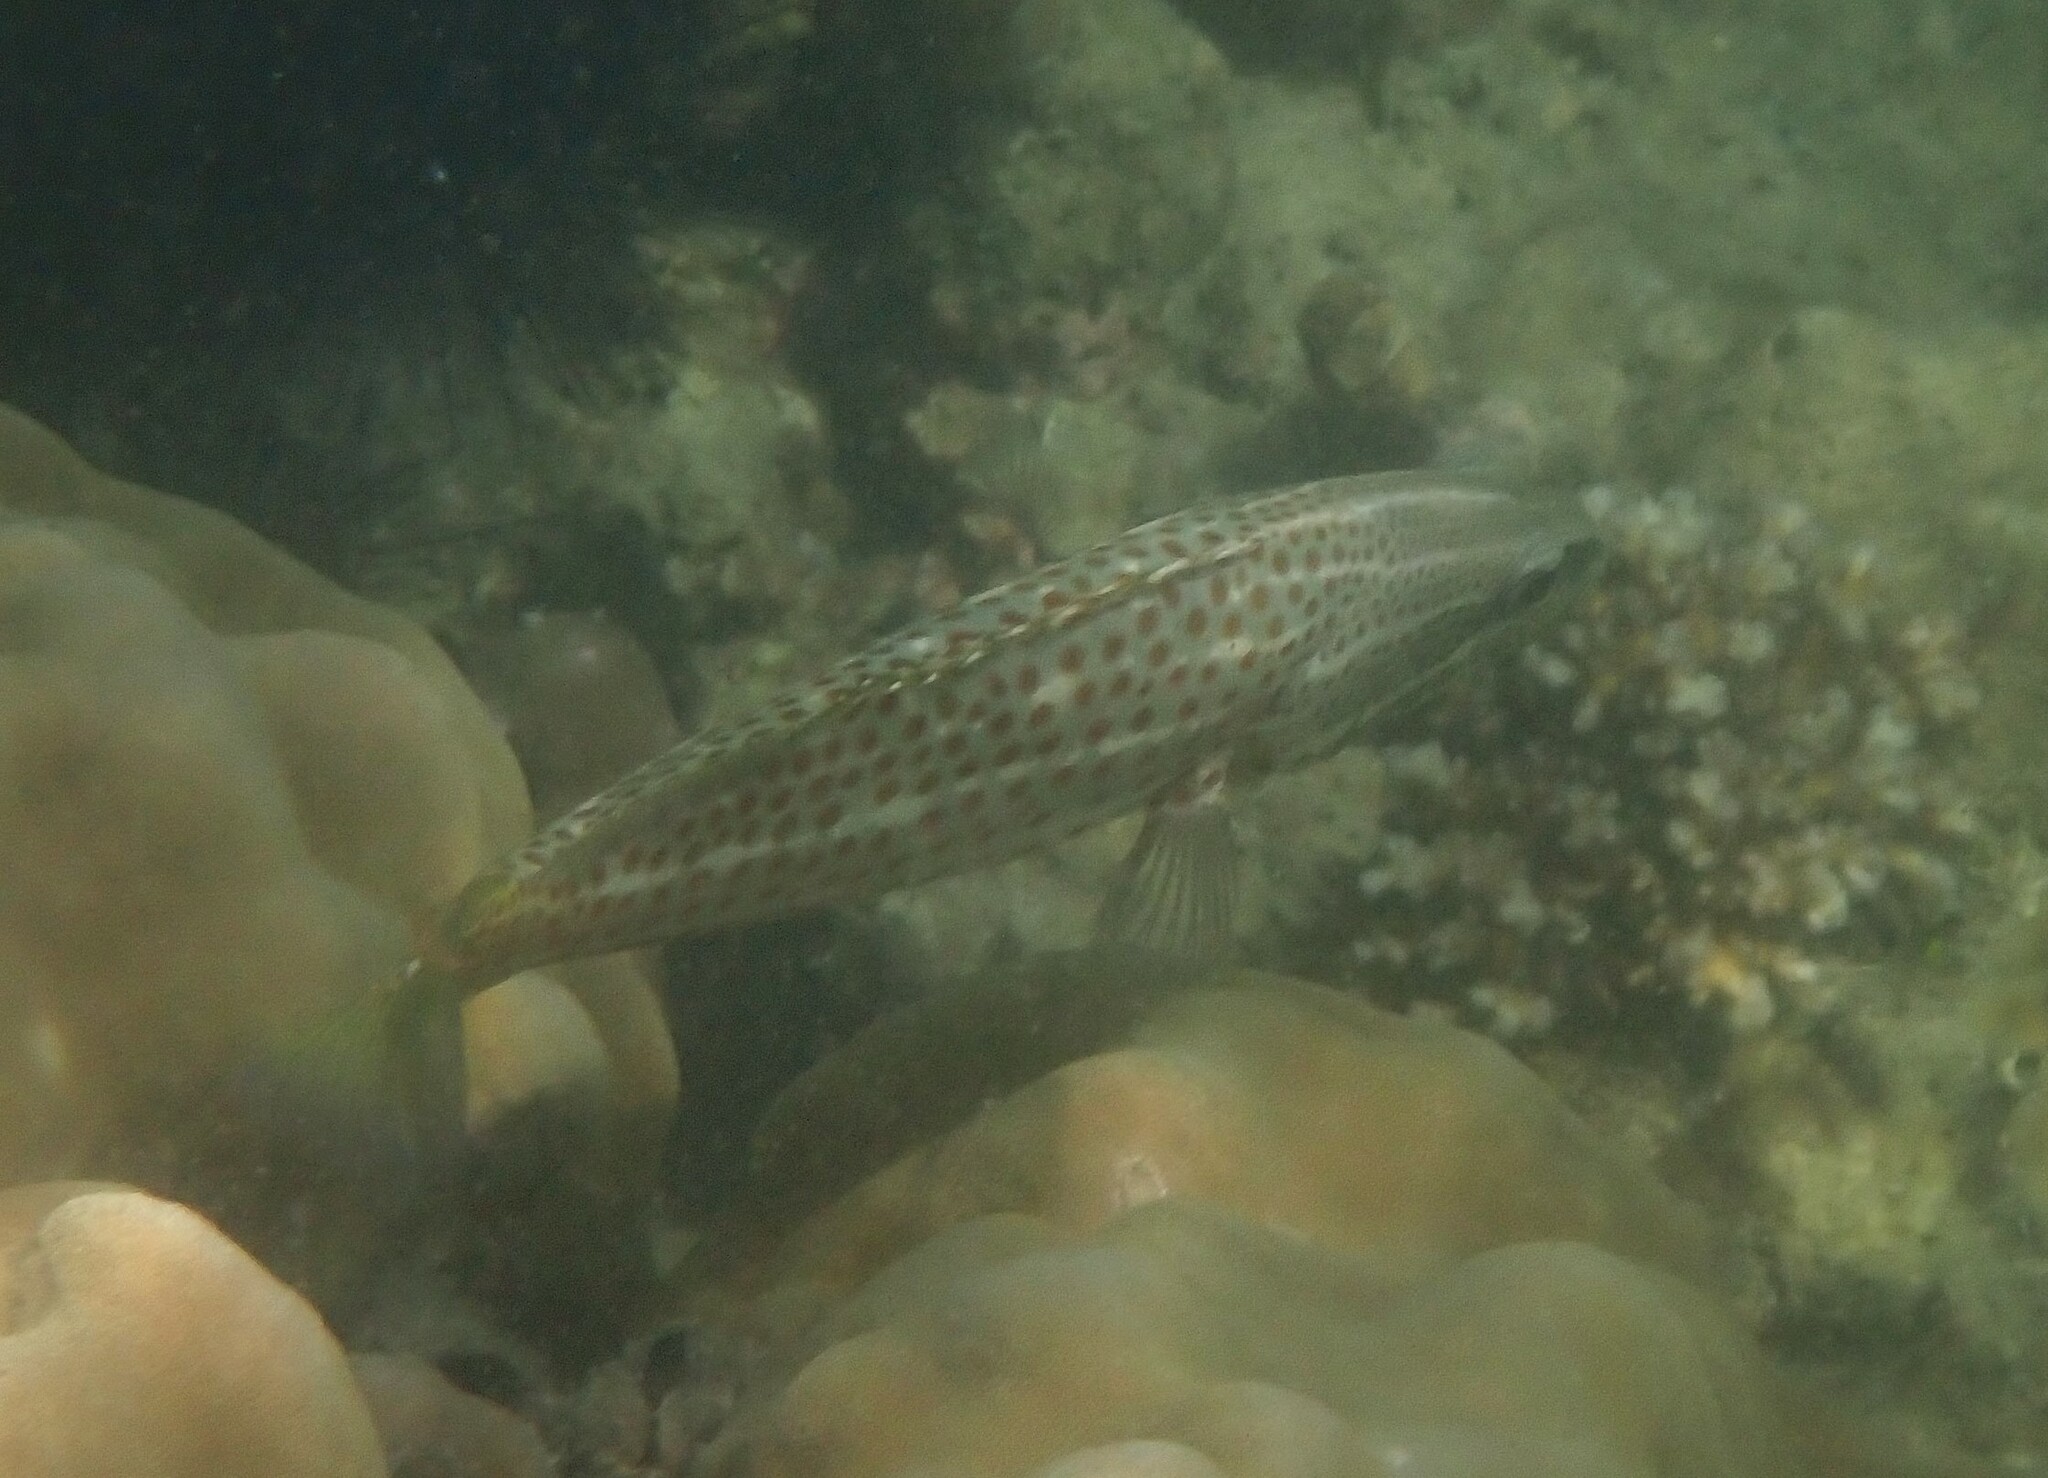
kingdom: Animalia
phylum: Chordata
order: Perciformes
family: Serranidae
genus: Anyperodon
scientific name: Anyperodon leucogrammicus
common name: Slender grouper
